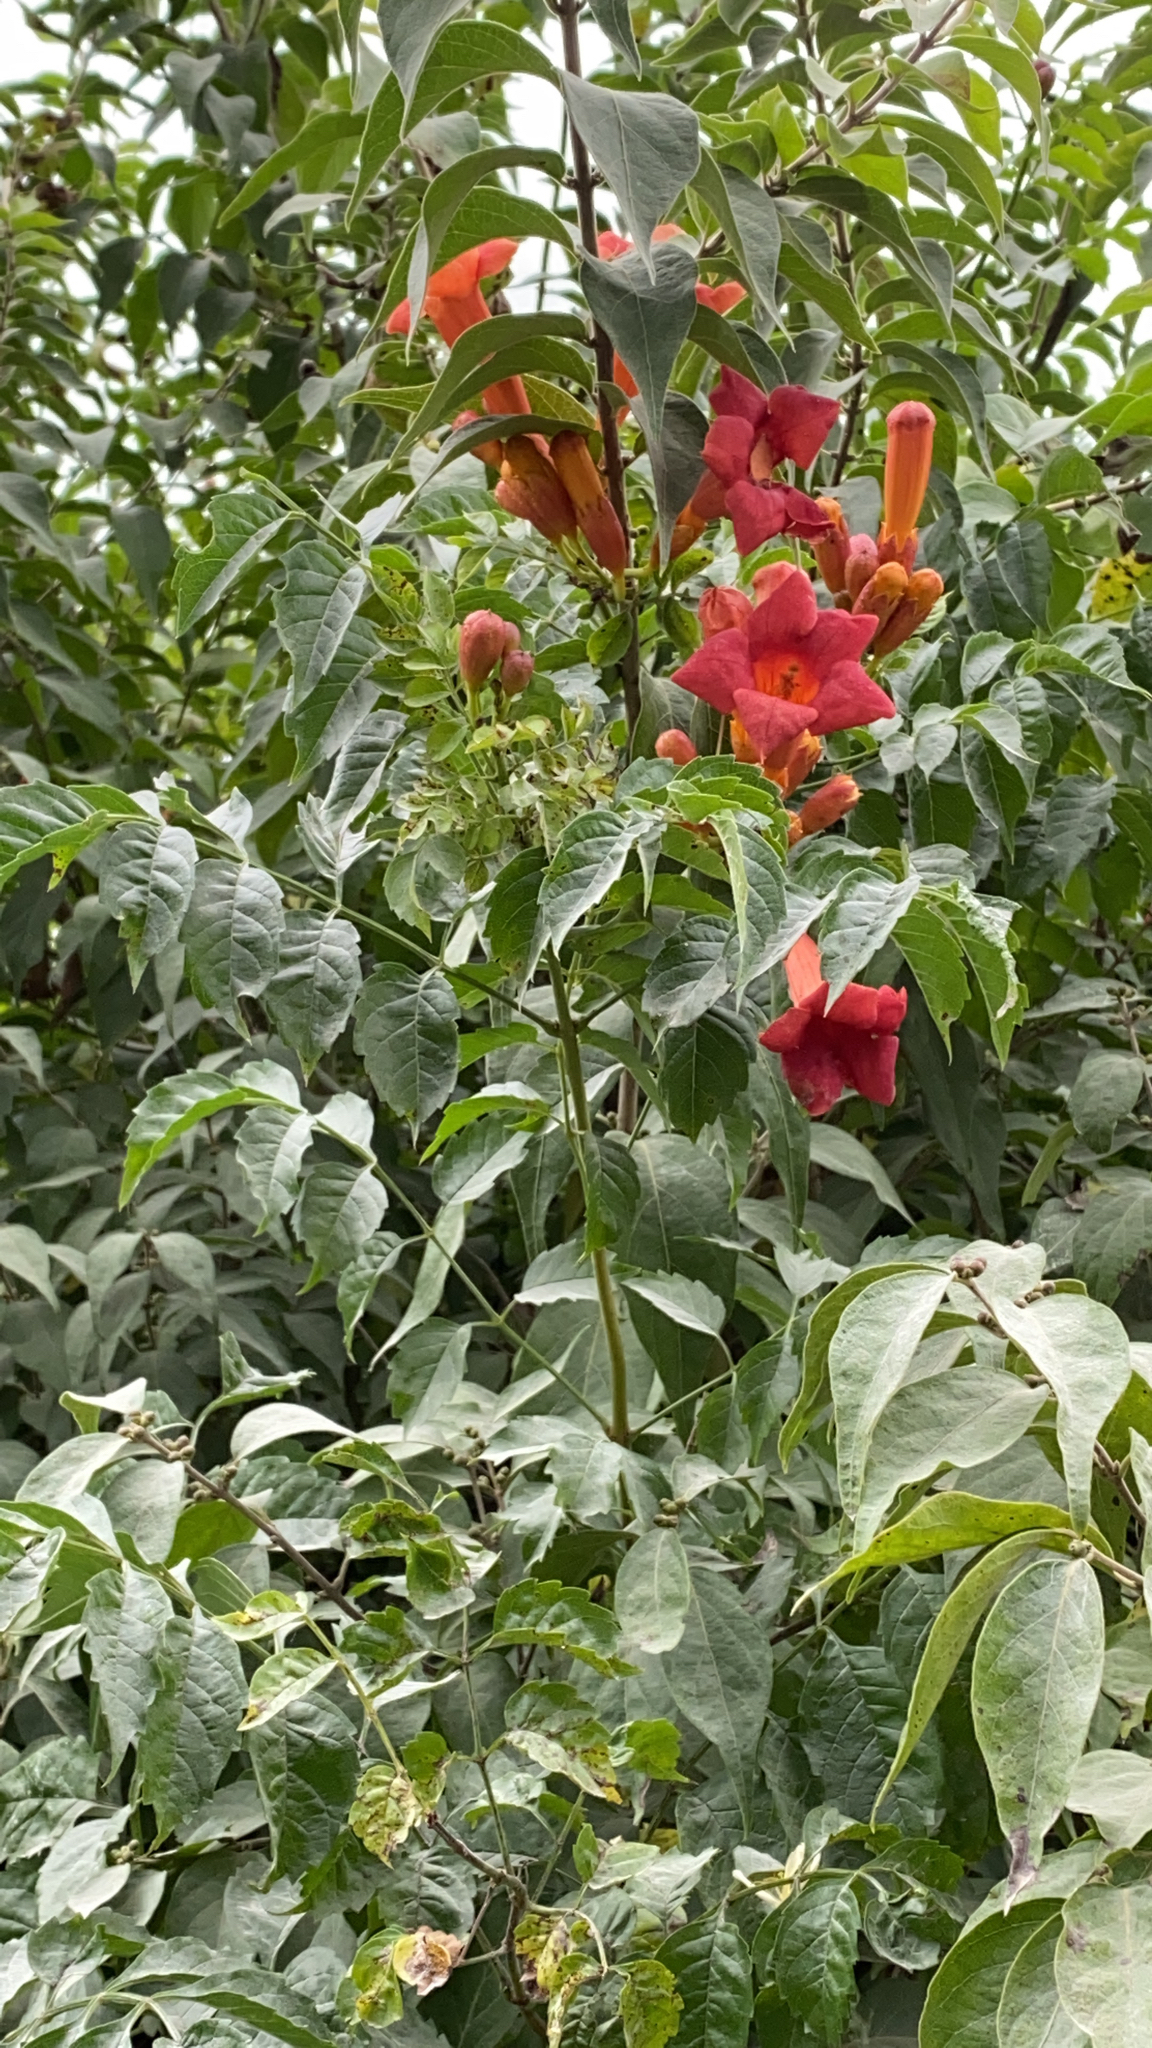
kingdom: Plantae
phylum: Tracheophyta
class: Magnoliopsida
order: Lamiales
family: Bignoniaceae
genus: Campsis
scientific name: Campsis radicans
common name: Trumpet-creeper
